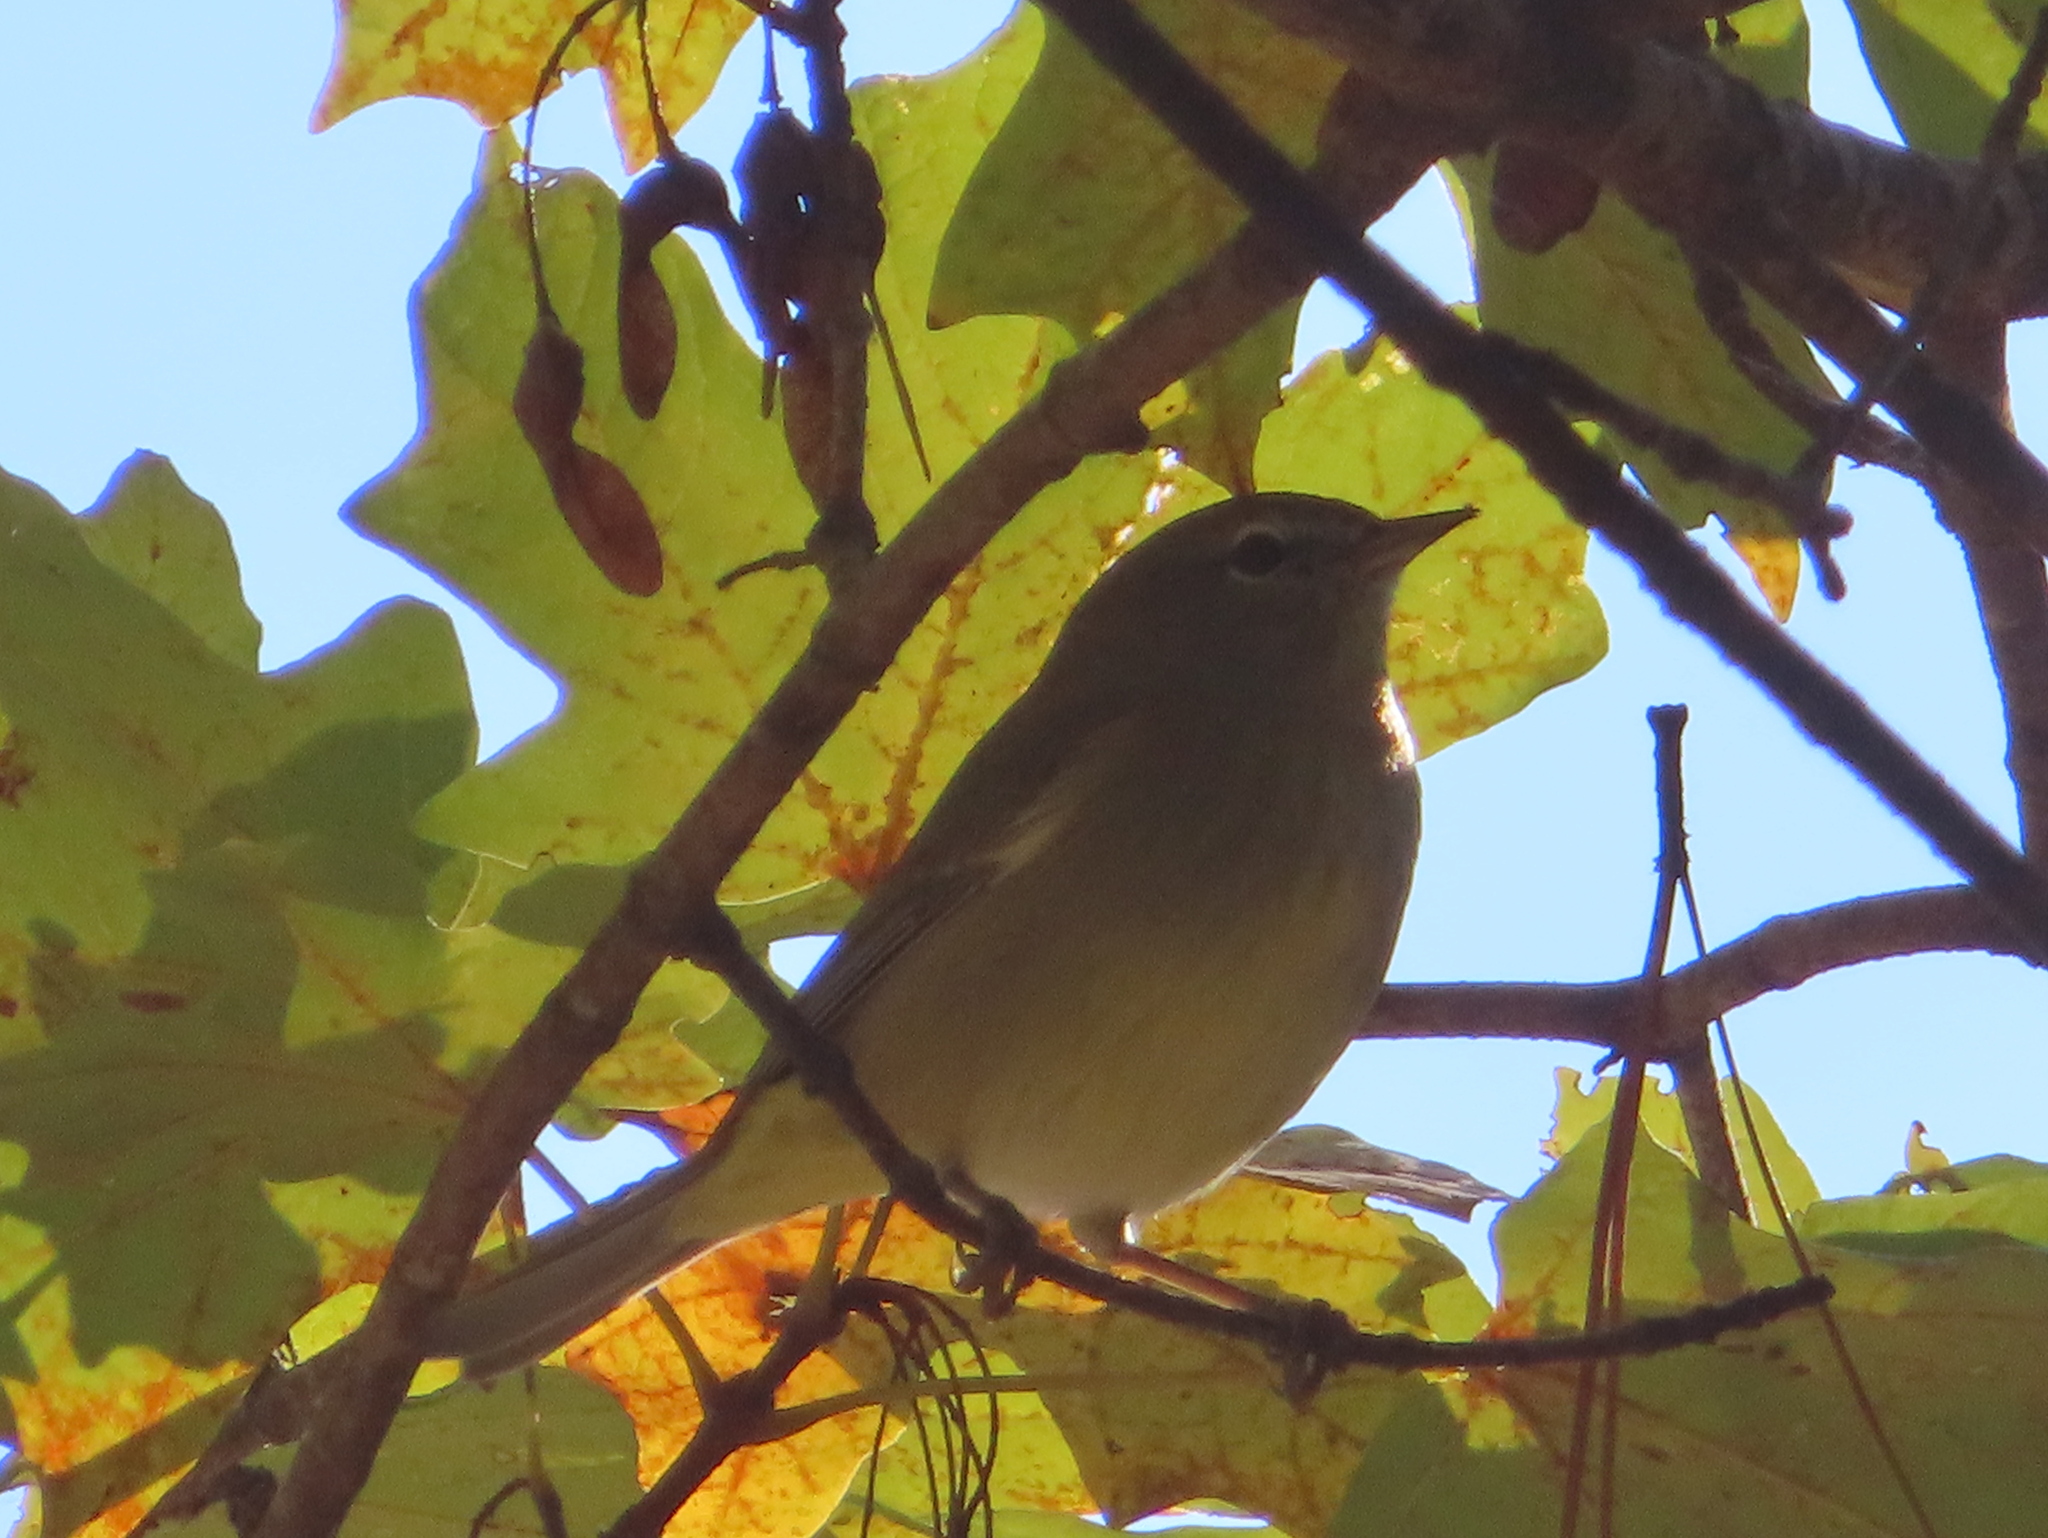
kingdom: Animalia
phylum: Chordata
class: Aves
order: Passeriformes
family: Parulidae
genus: Leiothlypis
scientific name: Leiothlypis celata
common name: Orange-crowned warbler
